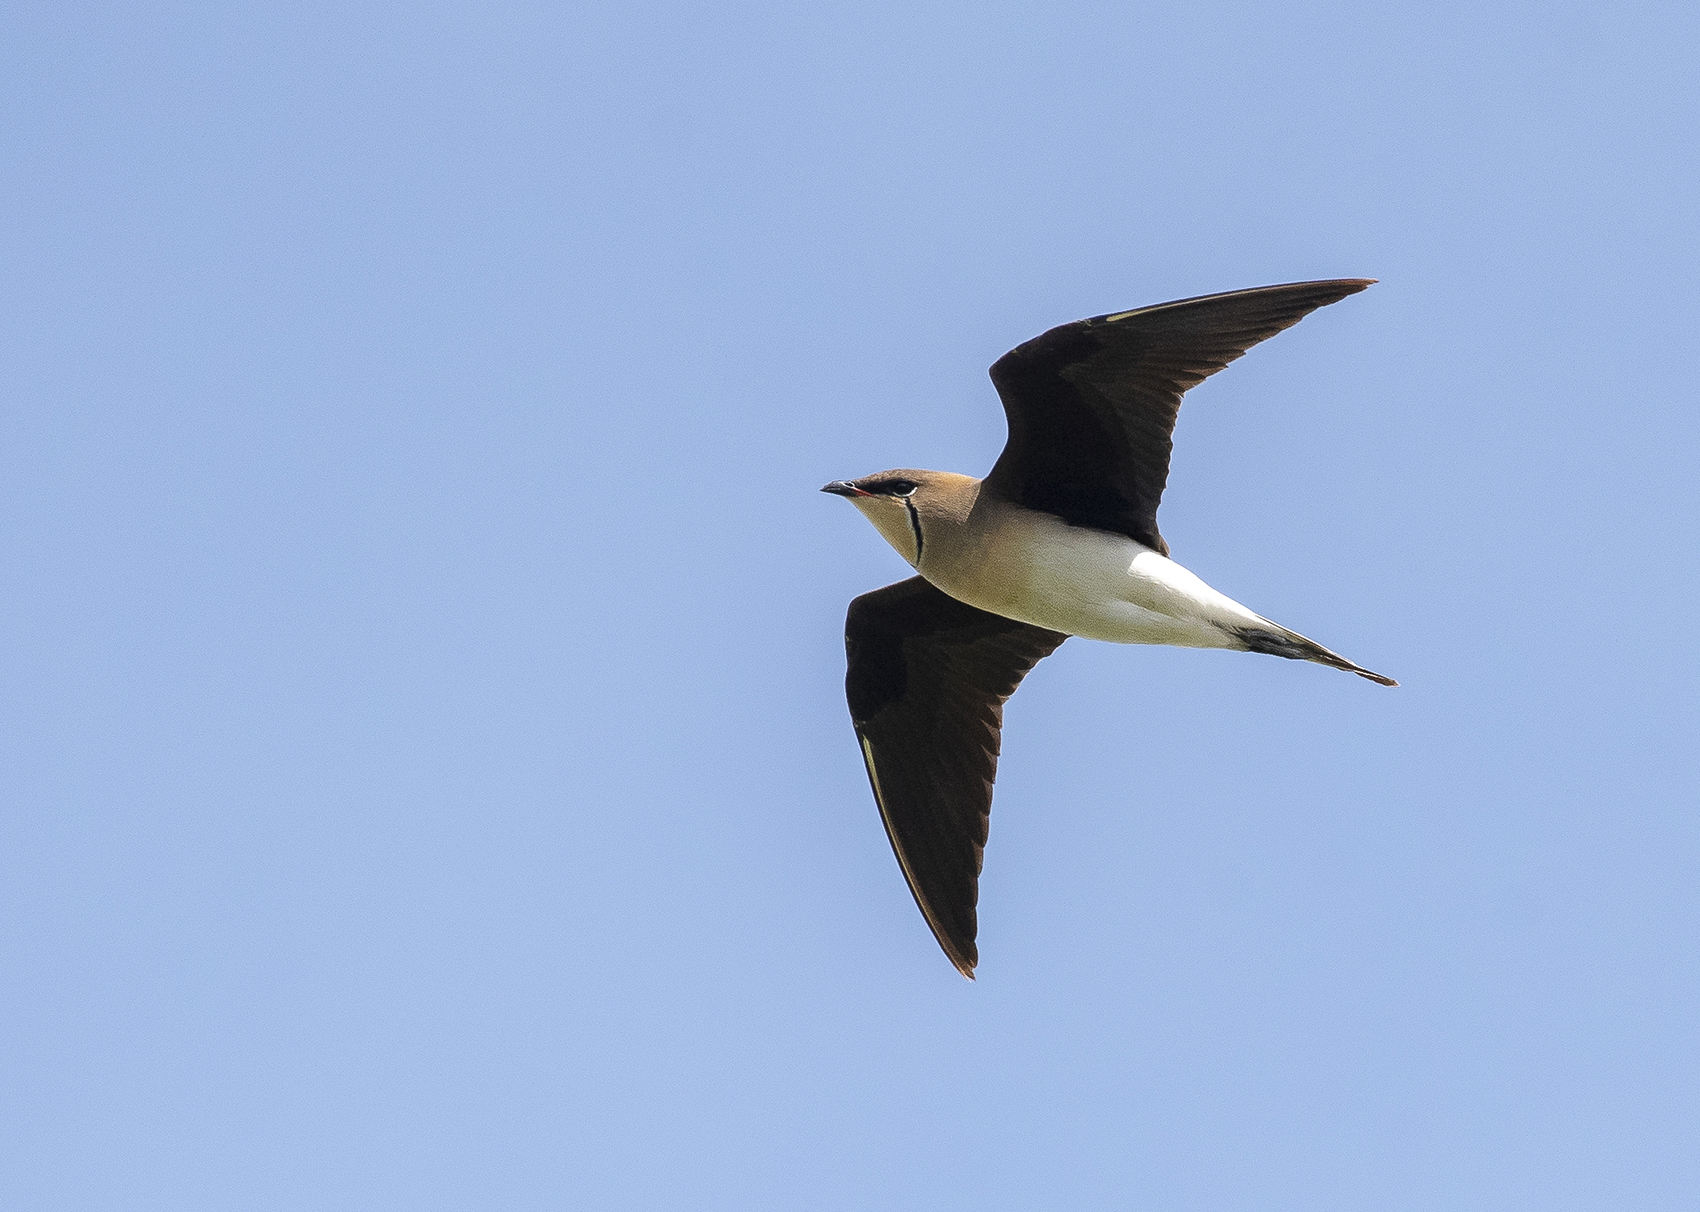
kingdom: Animalia
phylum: Chordata
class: Aves
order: Charadriiformes
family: Glareolidae
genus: Glareola
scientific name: Glareola nordmanni
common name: Black-winged pratincole
